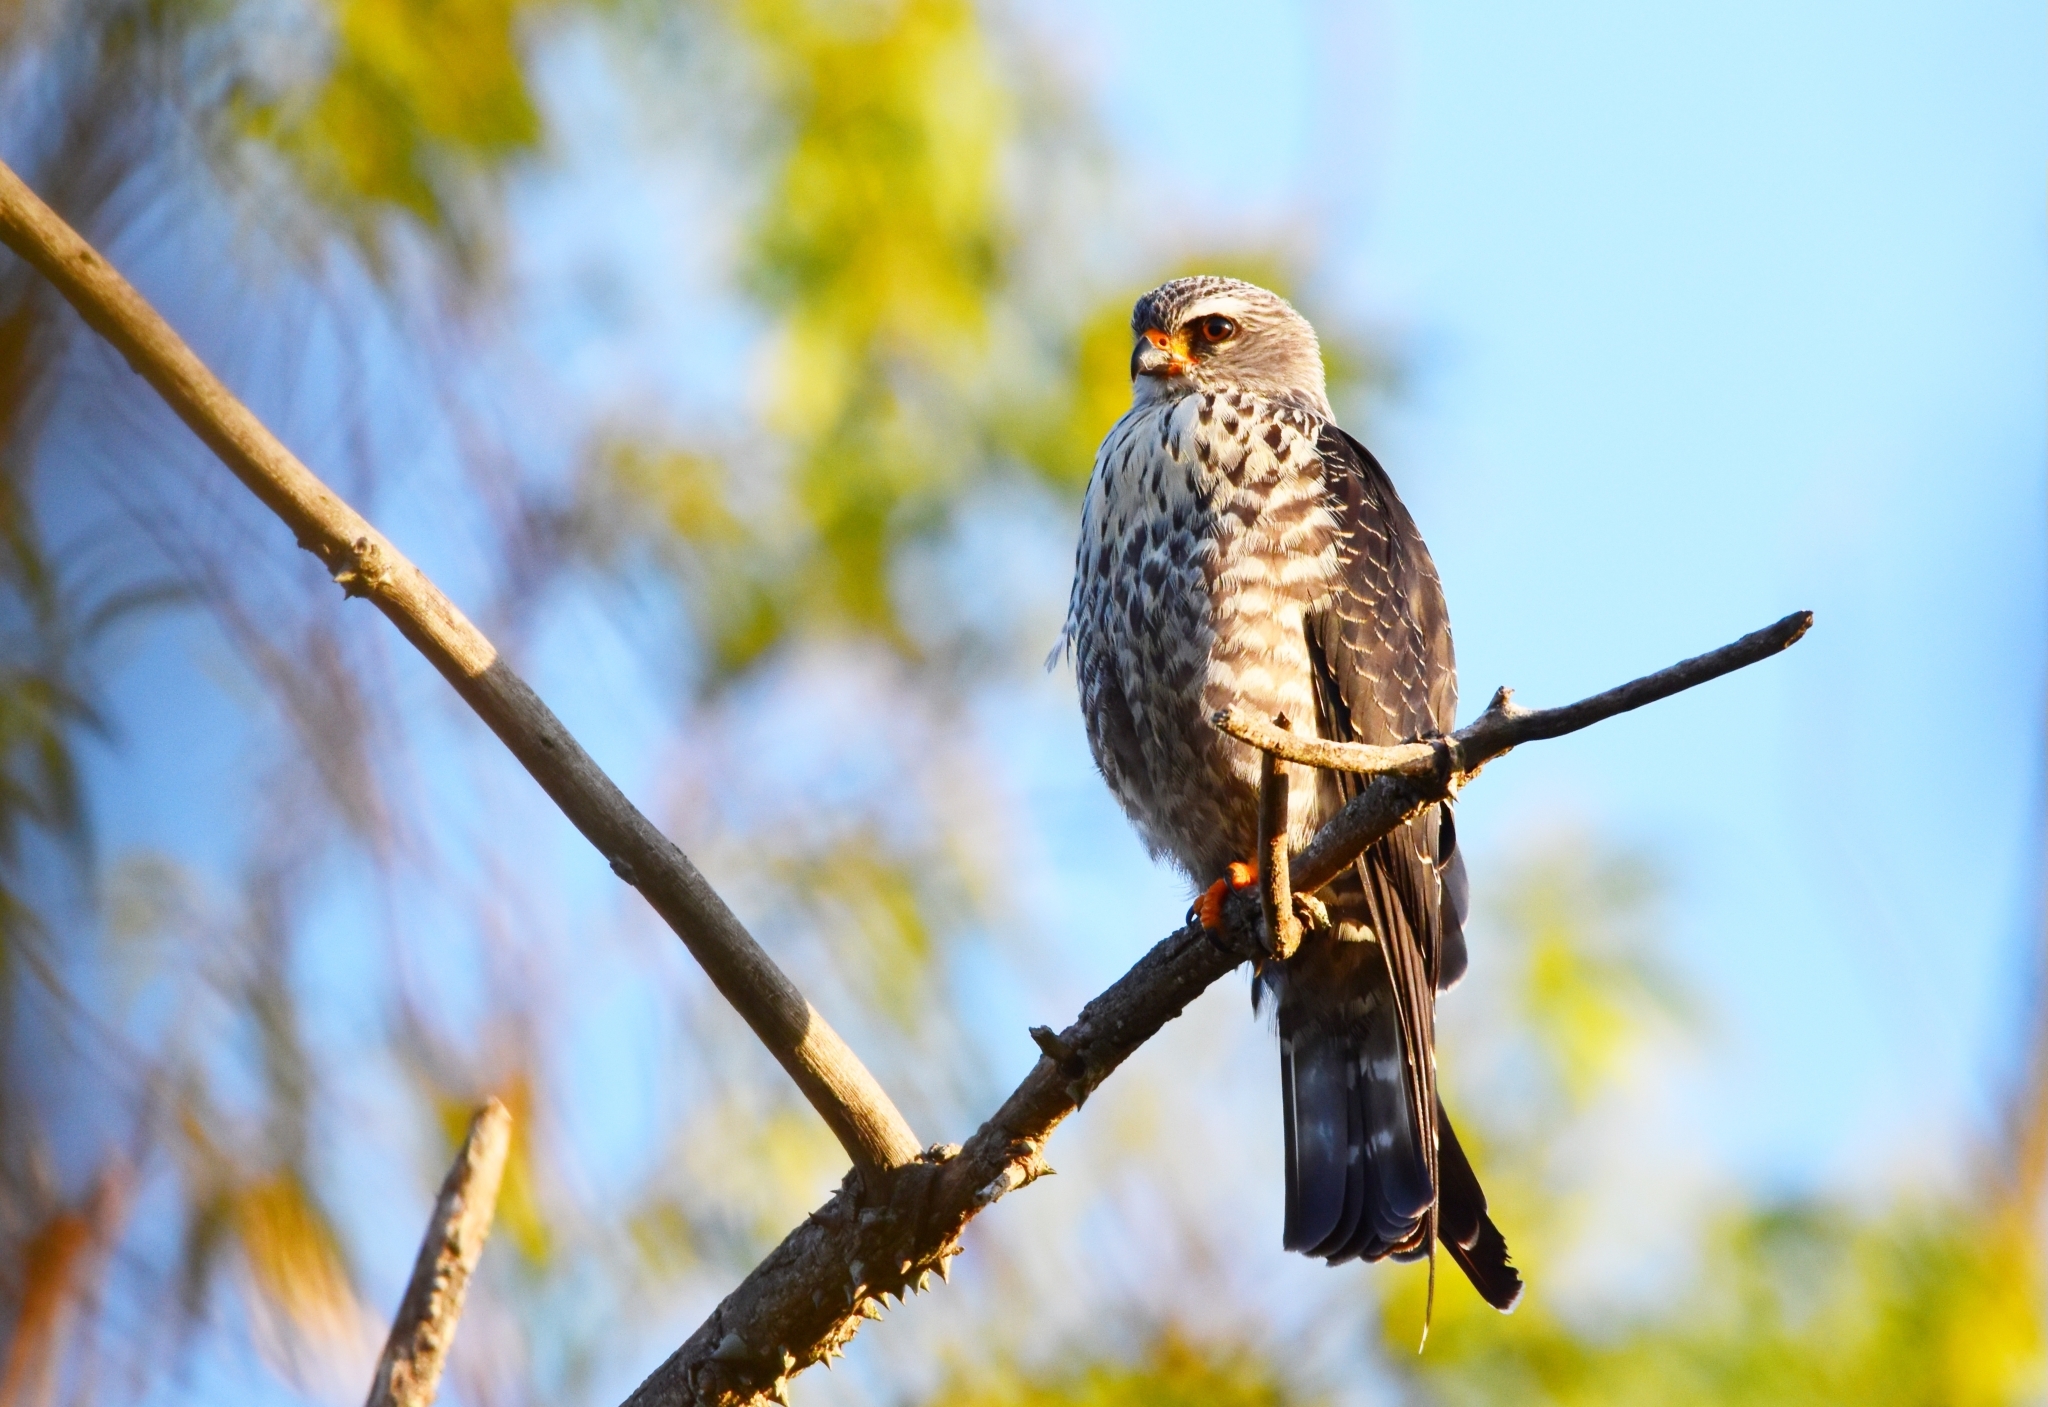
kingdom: Animalia
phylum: Chordata
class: Aves
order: Accipitriformes
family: Accipitridae
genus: Ictinia
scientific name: Ictinia plumbea
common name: Plumbeous kite
